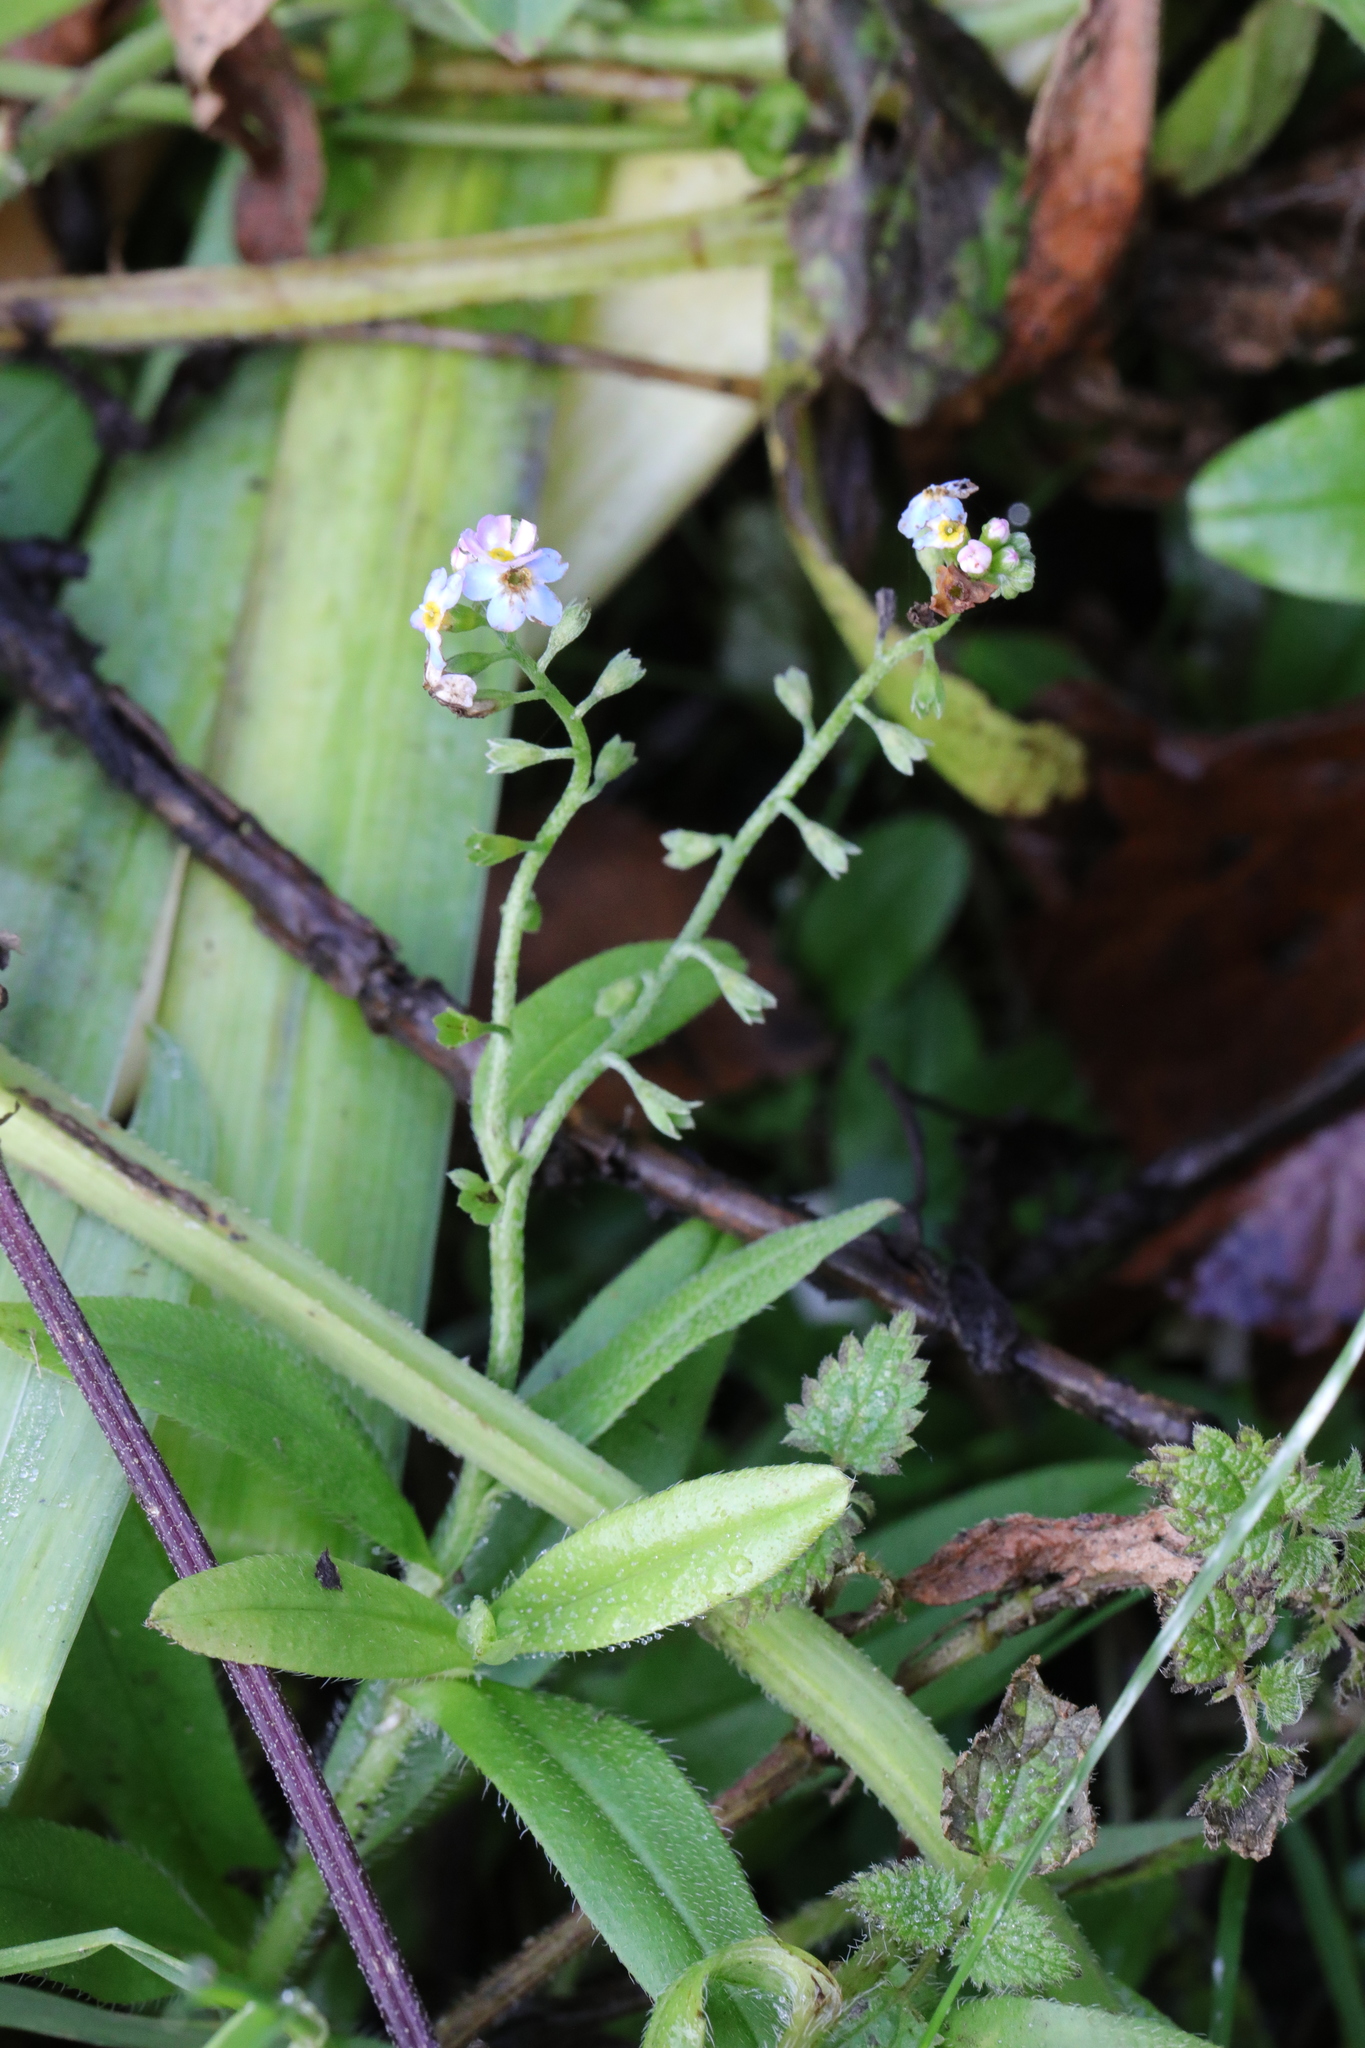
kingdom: Plantae
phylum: Tracheophyta
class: Magnoliopsida
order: Boraginales
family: Boraginaceae
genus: Myosotis
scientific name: Myosotis scorpioides
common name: Water forget-me-not
